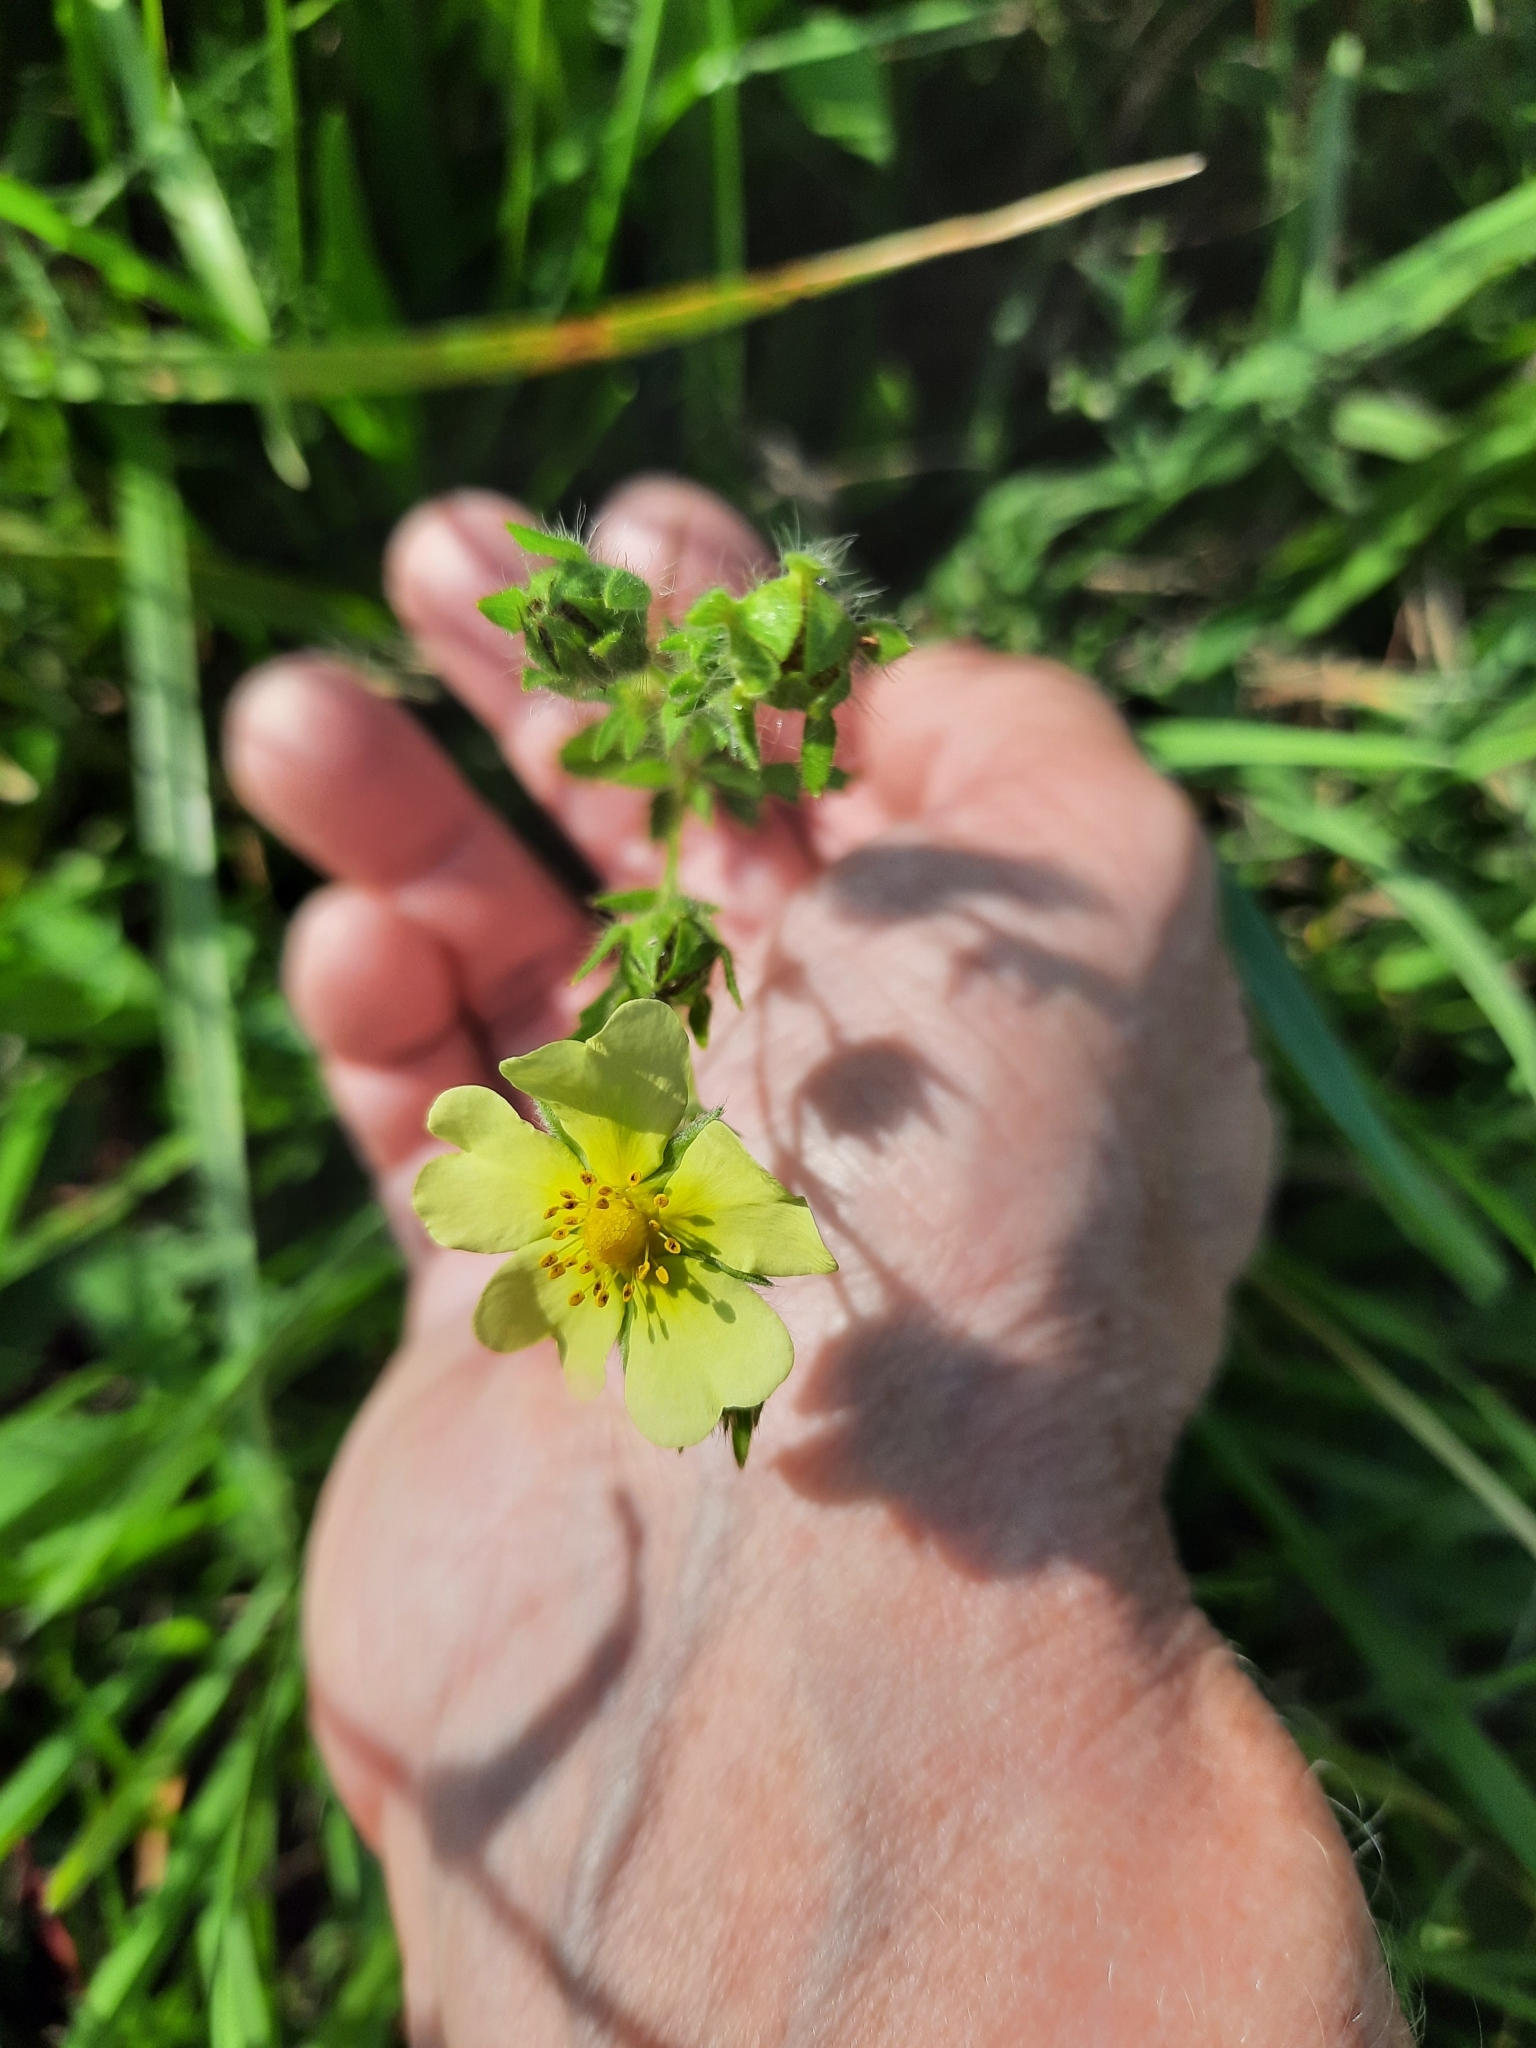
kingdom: Plantae
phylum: Tracheophyta
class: Magnoliopsida
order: Rosales
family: Rosaceae
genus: Potentilla
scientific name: Potentilla recta
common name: Sulphur cinquefoil
